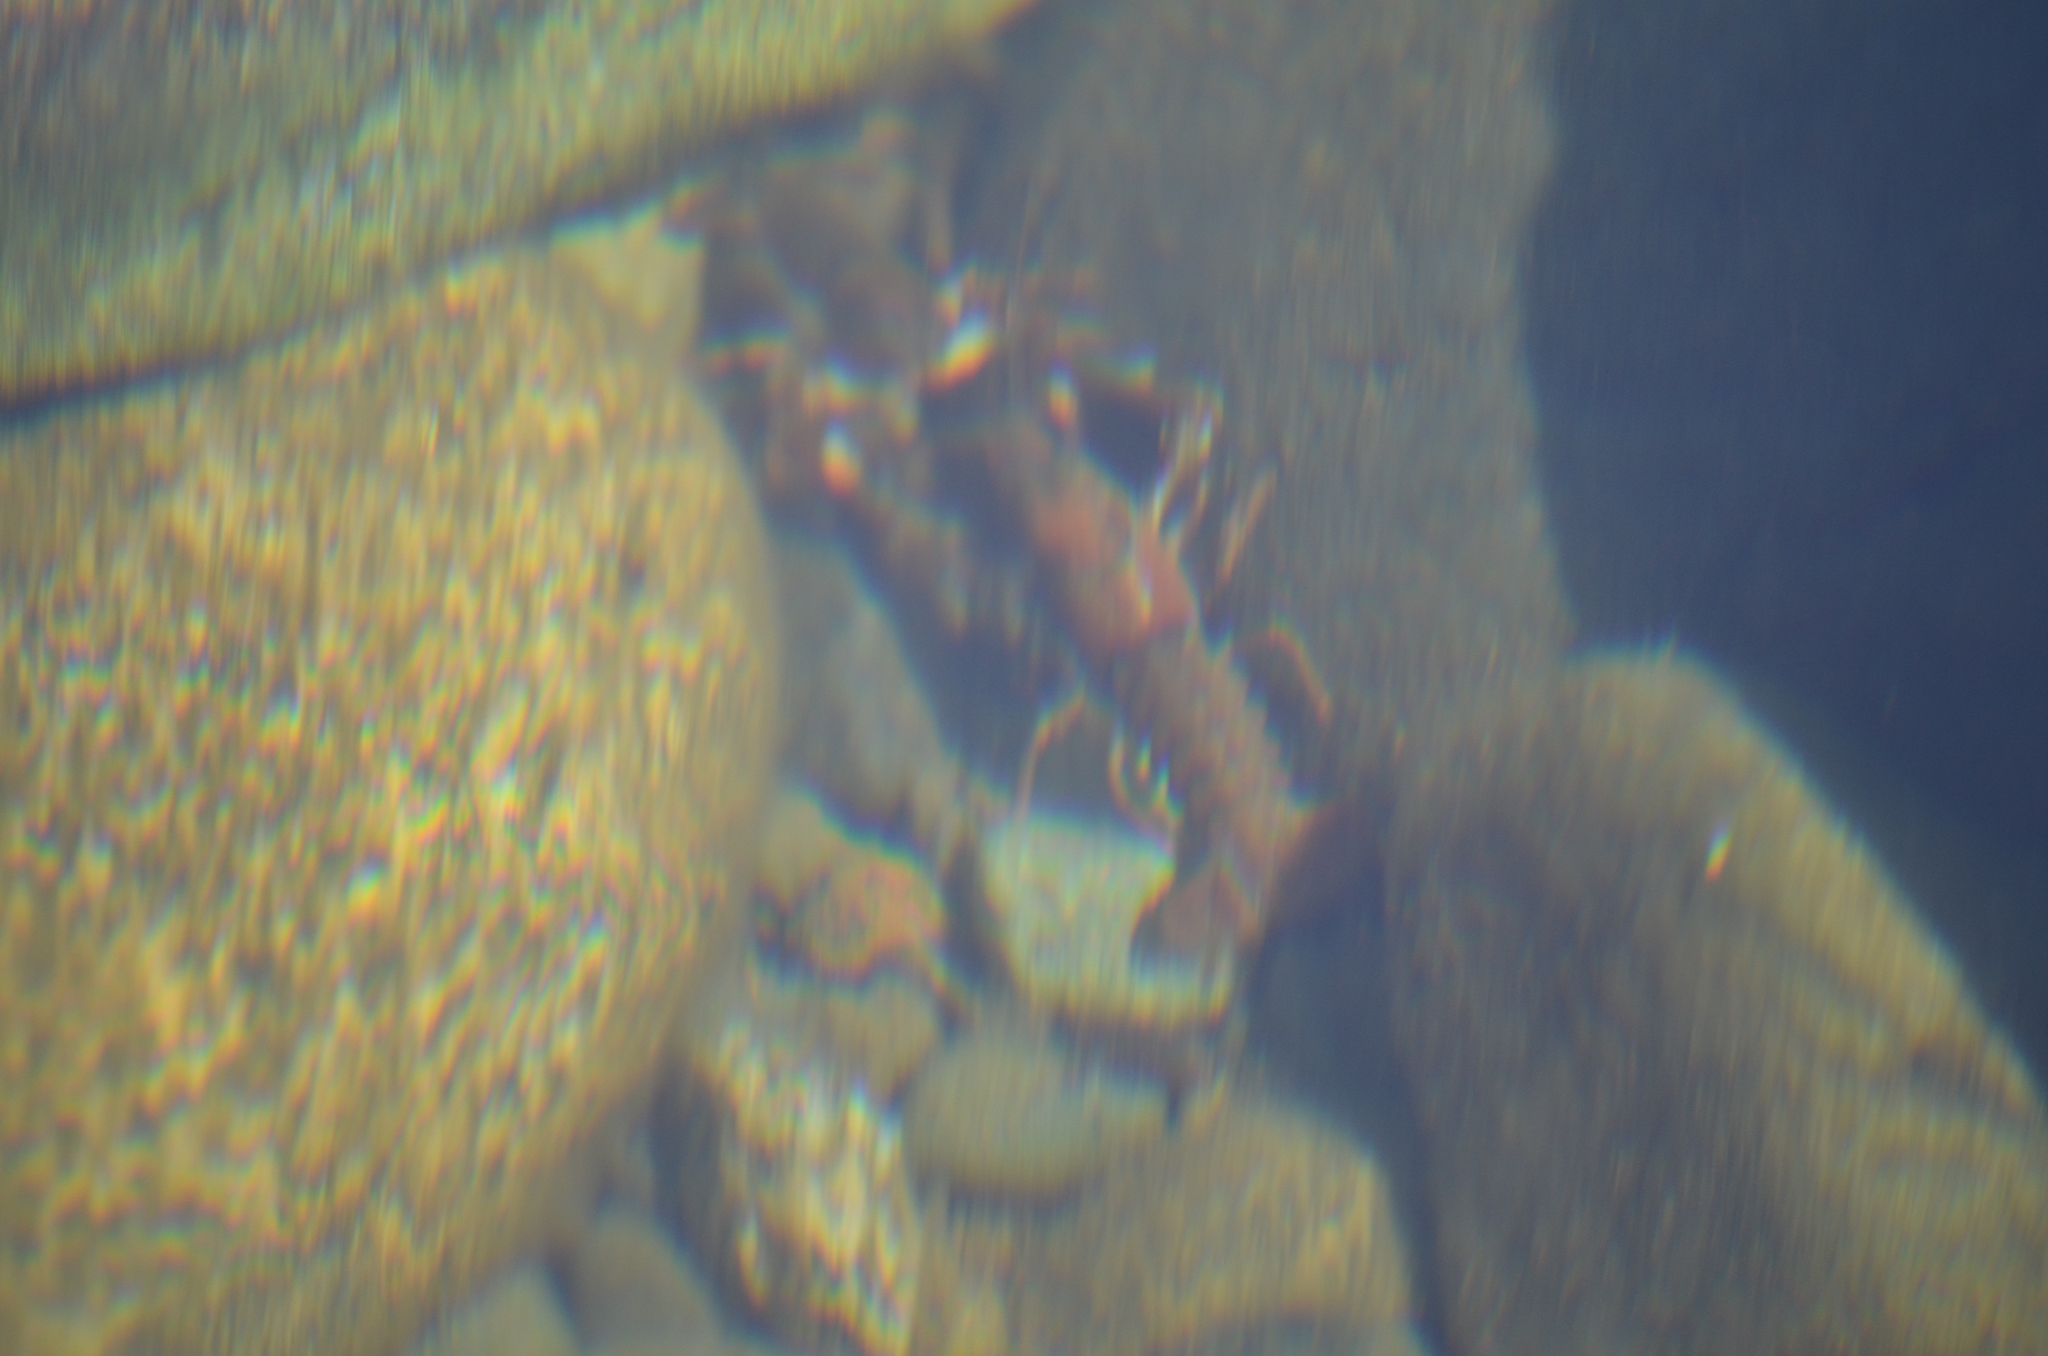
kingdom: Animalia
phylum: Arthropoda
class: Malacostraca
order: Decapoda
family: Astacidae
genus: Pacifastacus
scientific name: Pacifastacus leniusculus
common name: Signal crayfish
